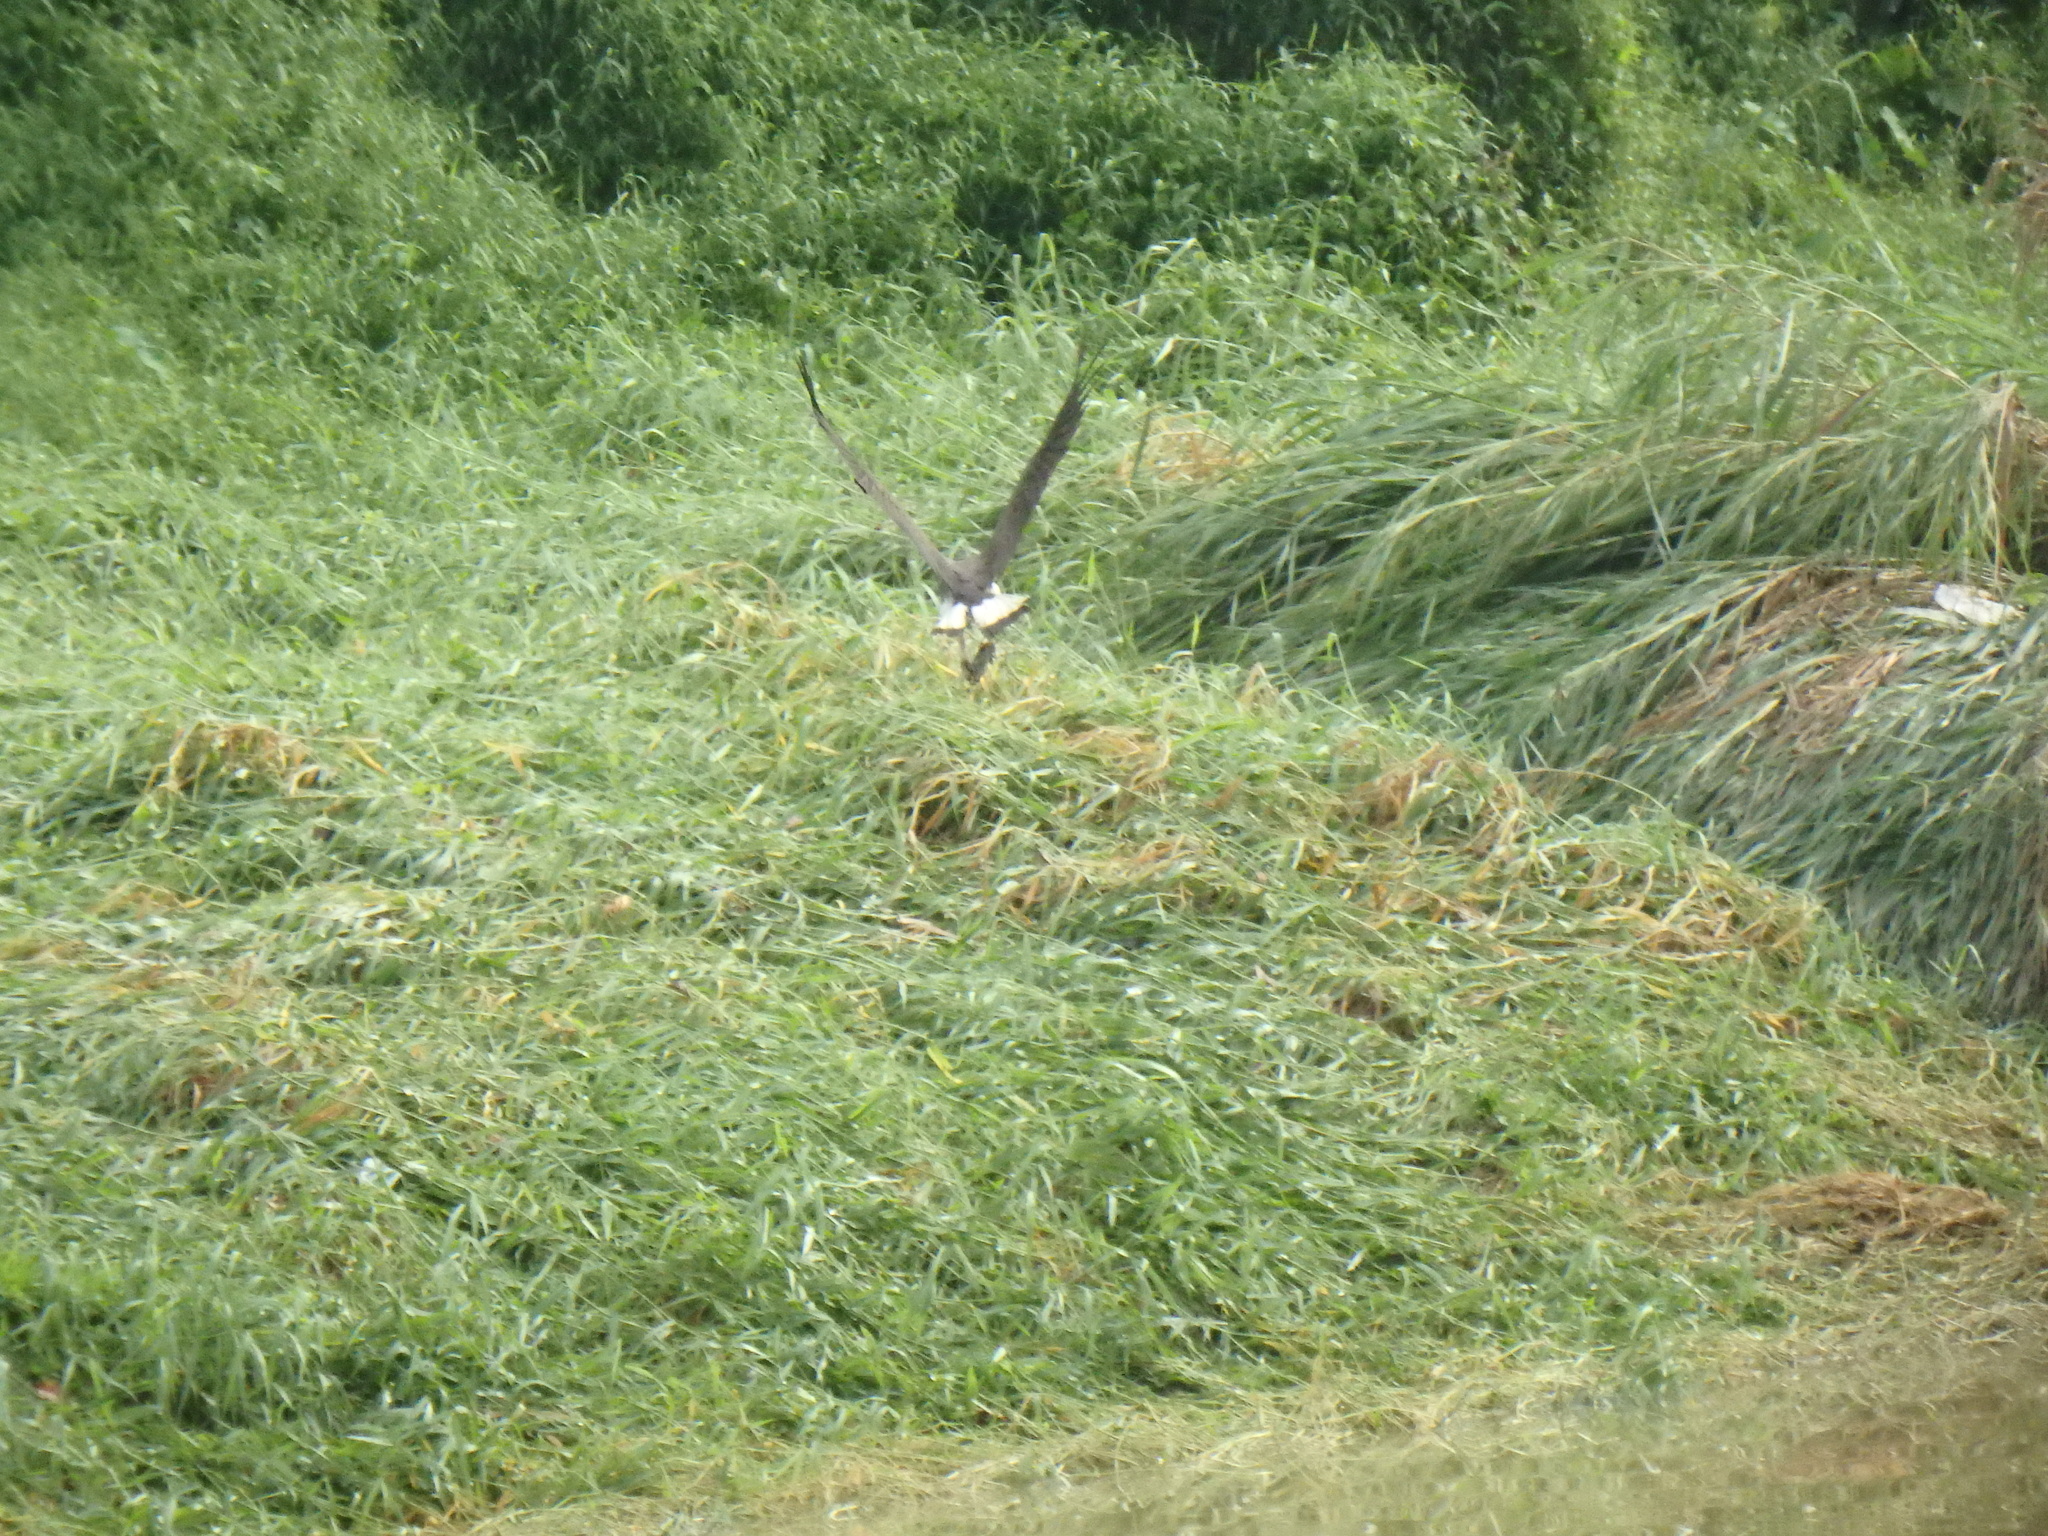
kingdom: Animalia
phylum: Chordata
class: Aves
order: Accipitriformes
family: Accipitridae
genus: Icthyophaga
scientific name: Icthyophaga ichthyaetus
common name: Grey-headed fish eagle
